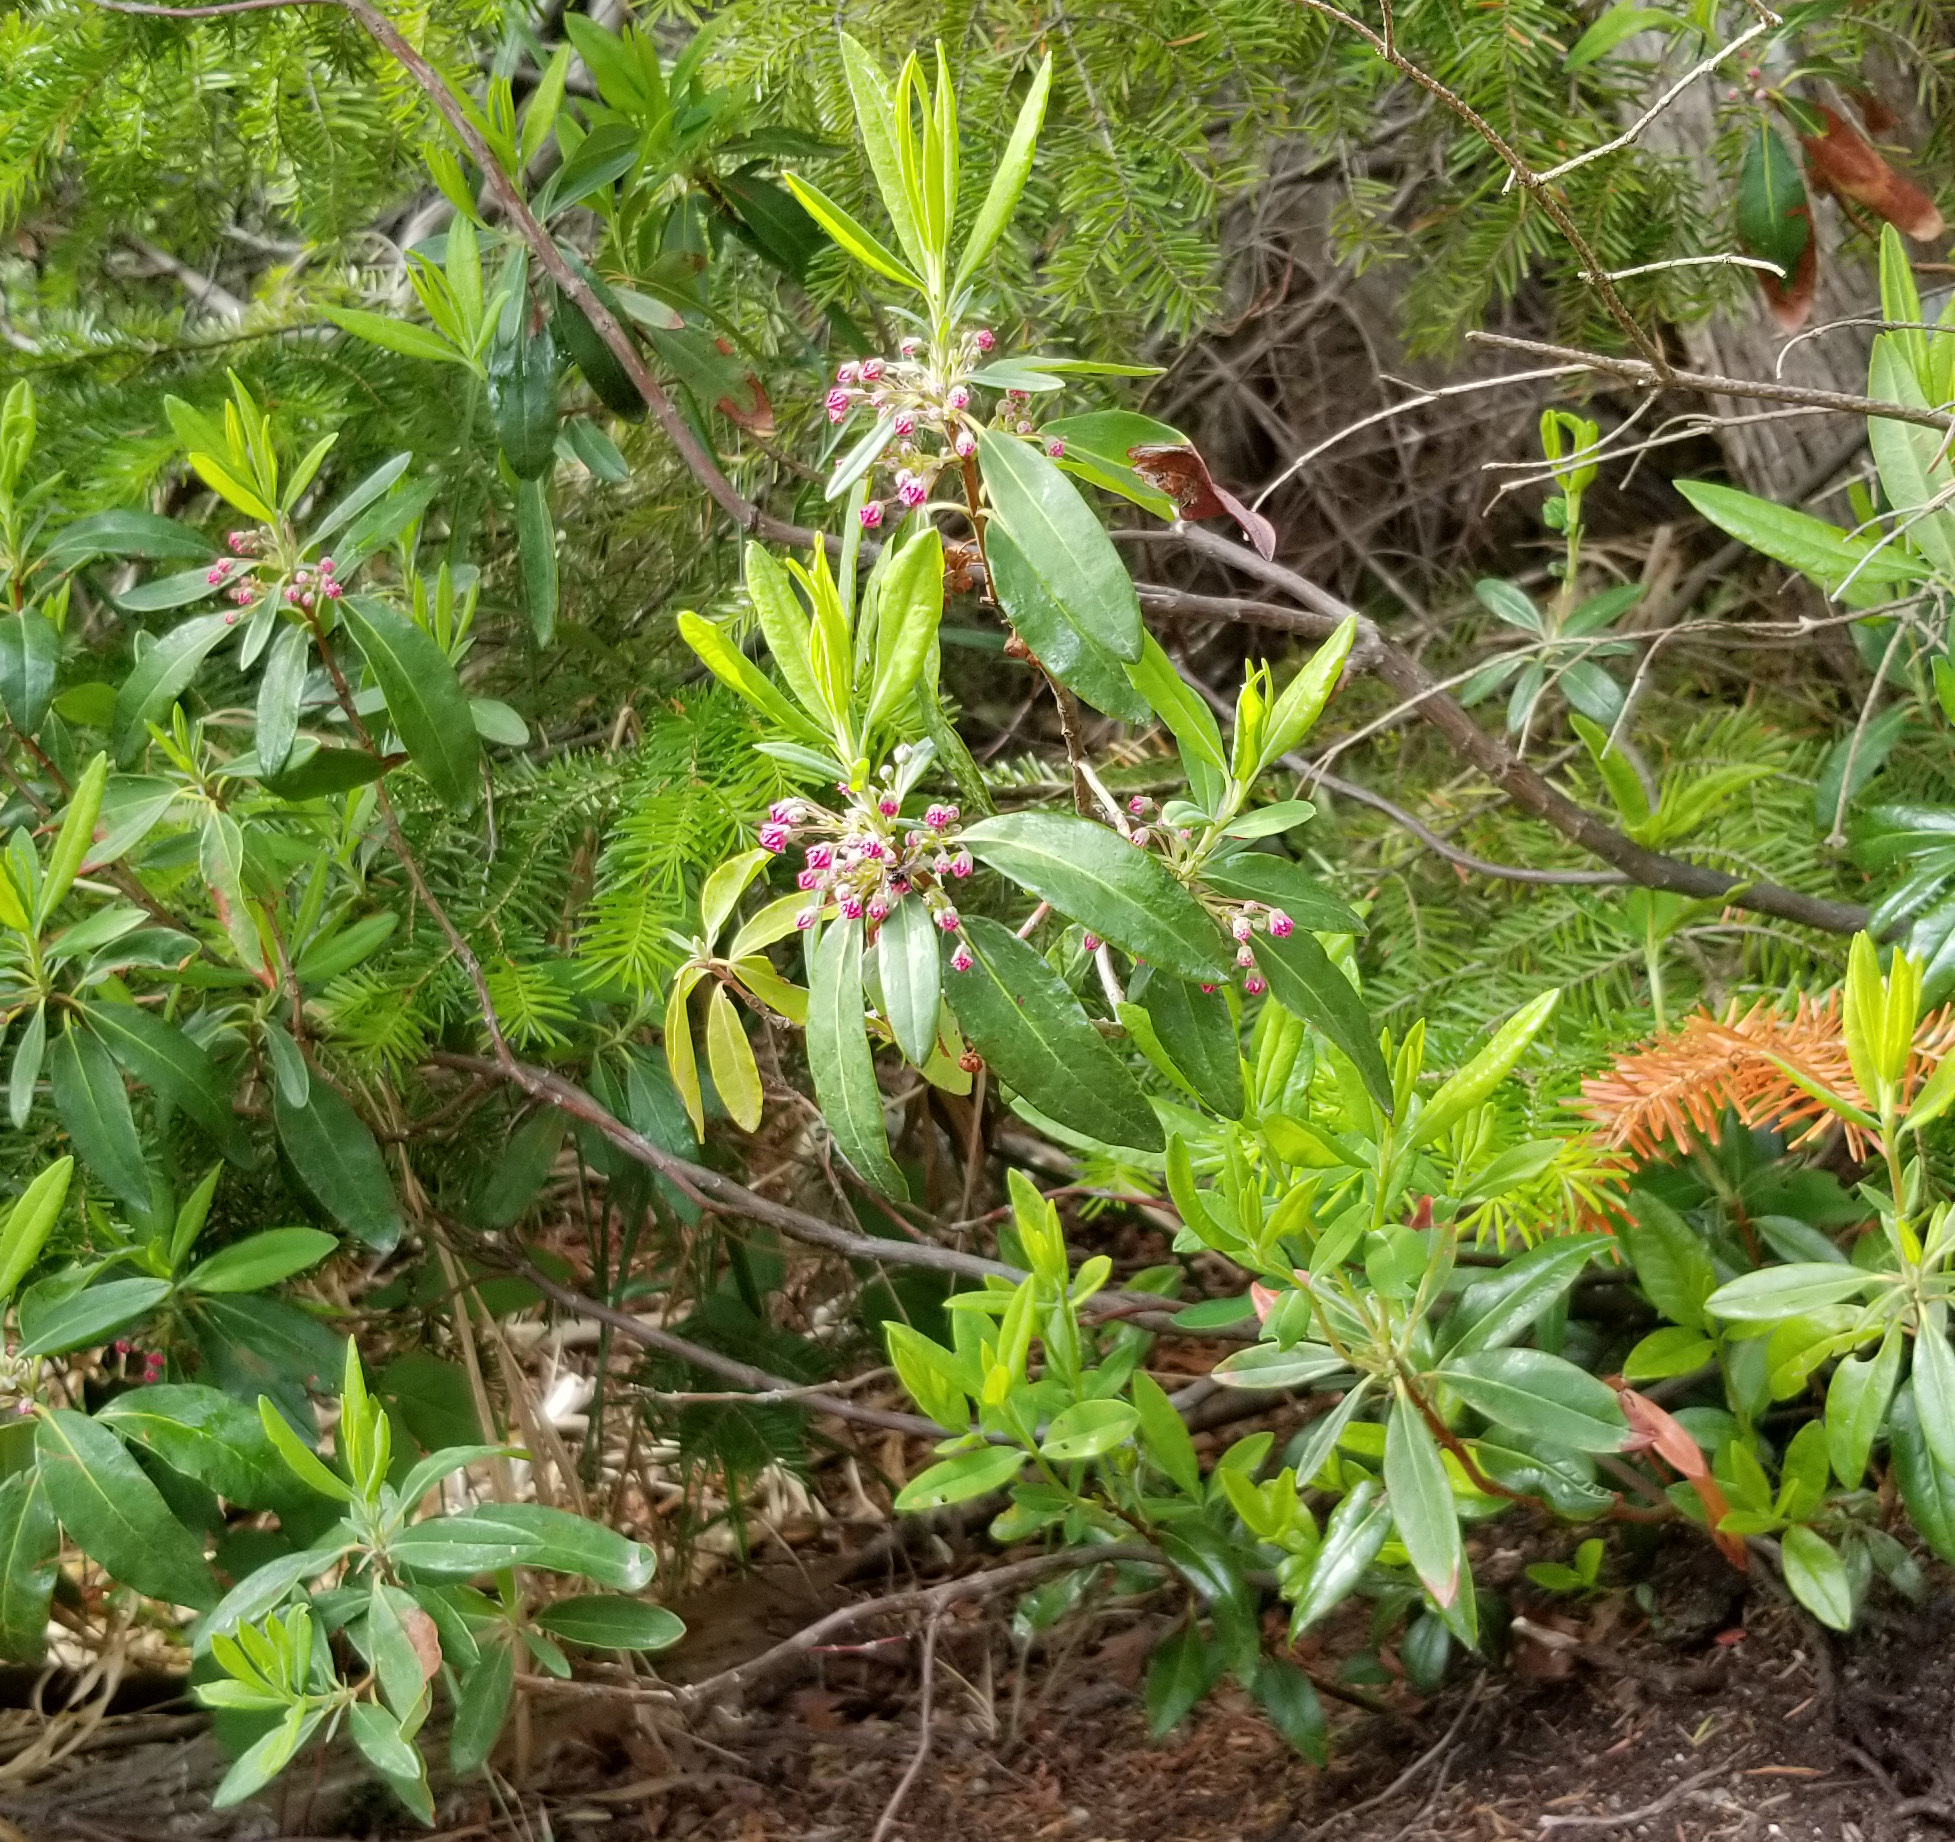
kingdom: Plantae
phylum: Tracheophyta
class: Magnoliopsida
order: Ericales
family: Ericaceae
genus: Kalmia
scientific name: Kalmia angustifolia
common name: Sheep-laurel
